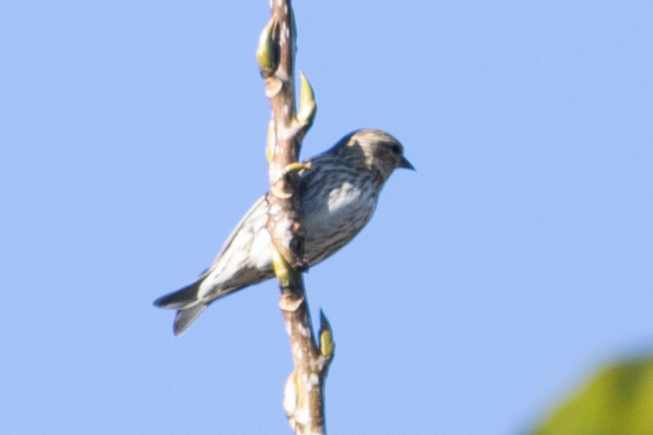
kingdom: Animalia
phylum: Chordata
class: Aves
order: Passeriformes
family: Fringillidae
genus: Spinus
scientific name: Spinus pinus
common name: Pine siskin
